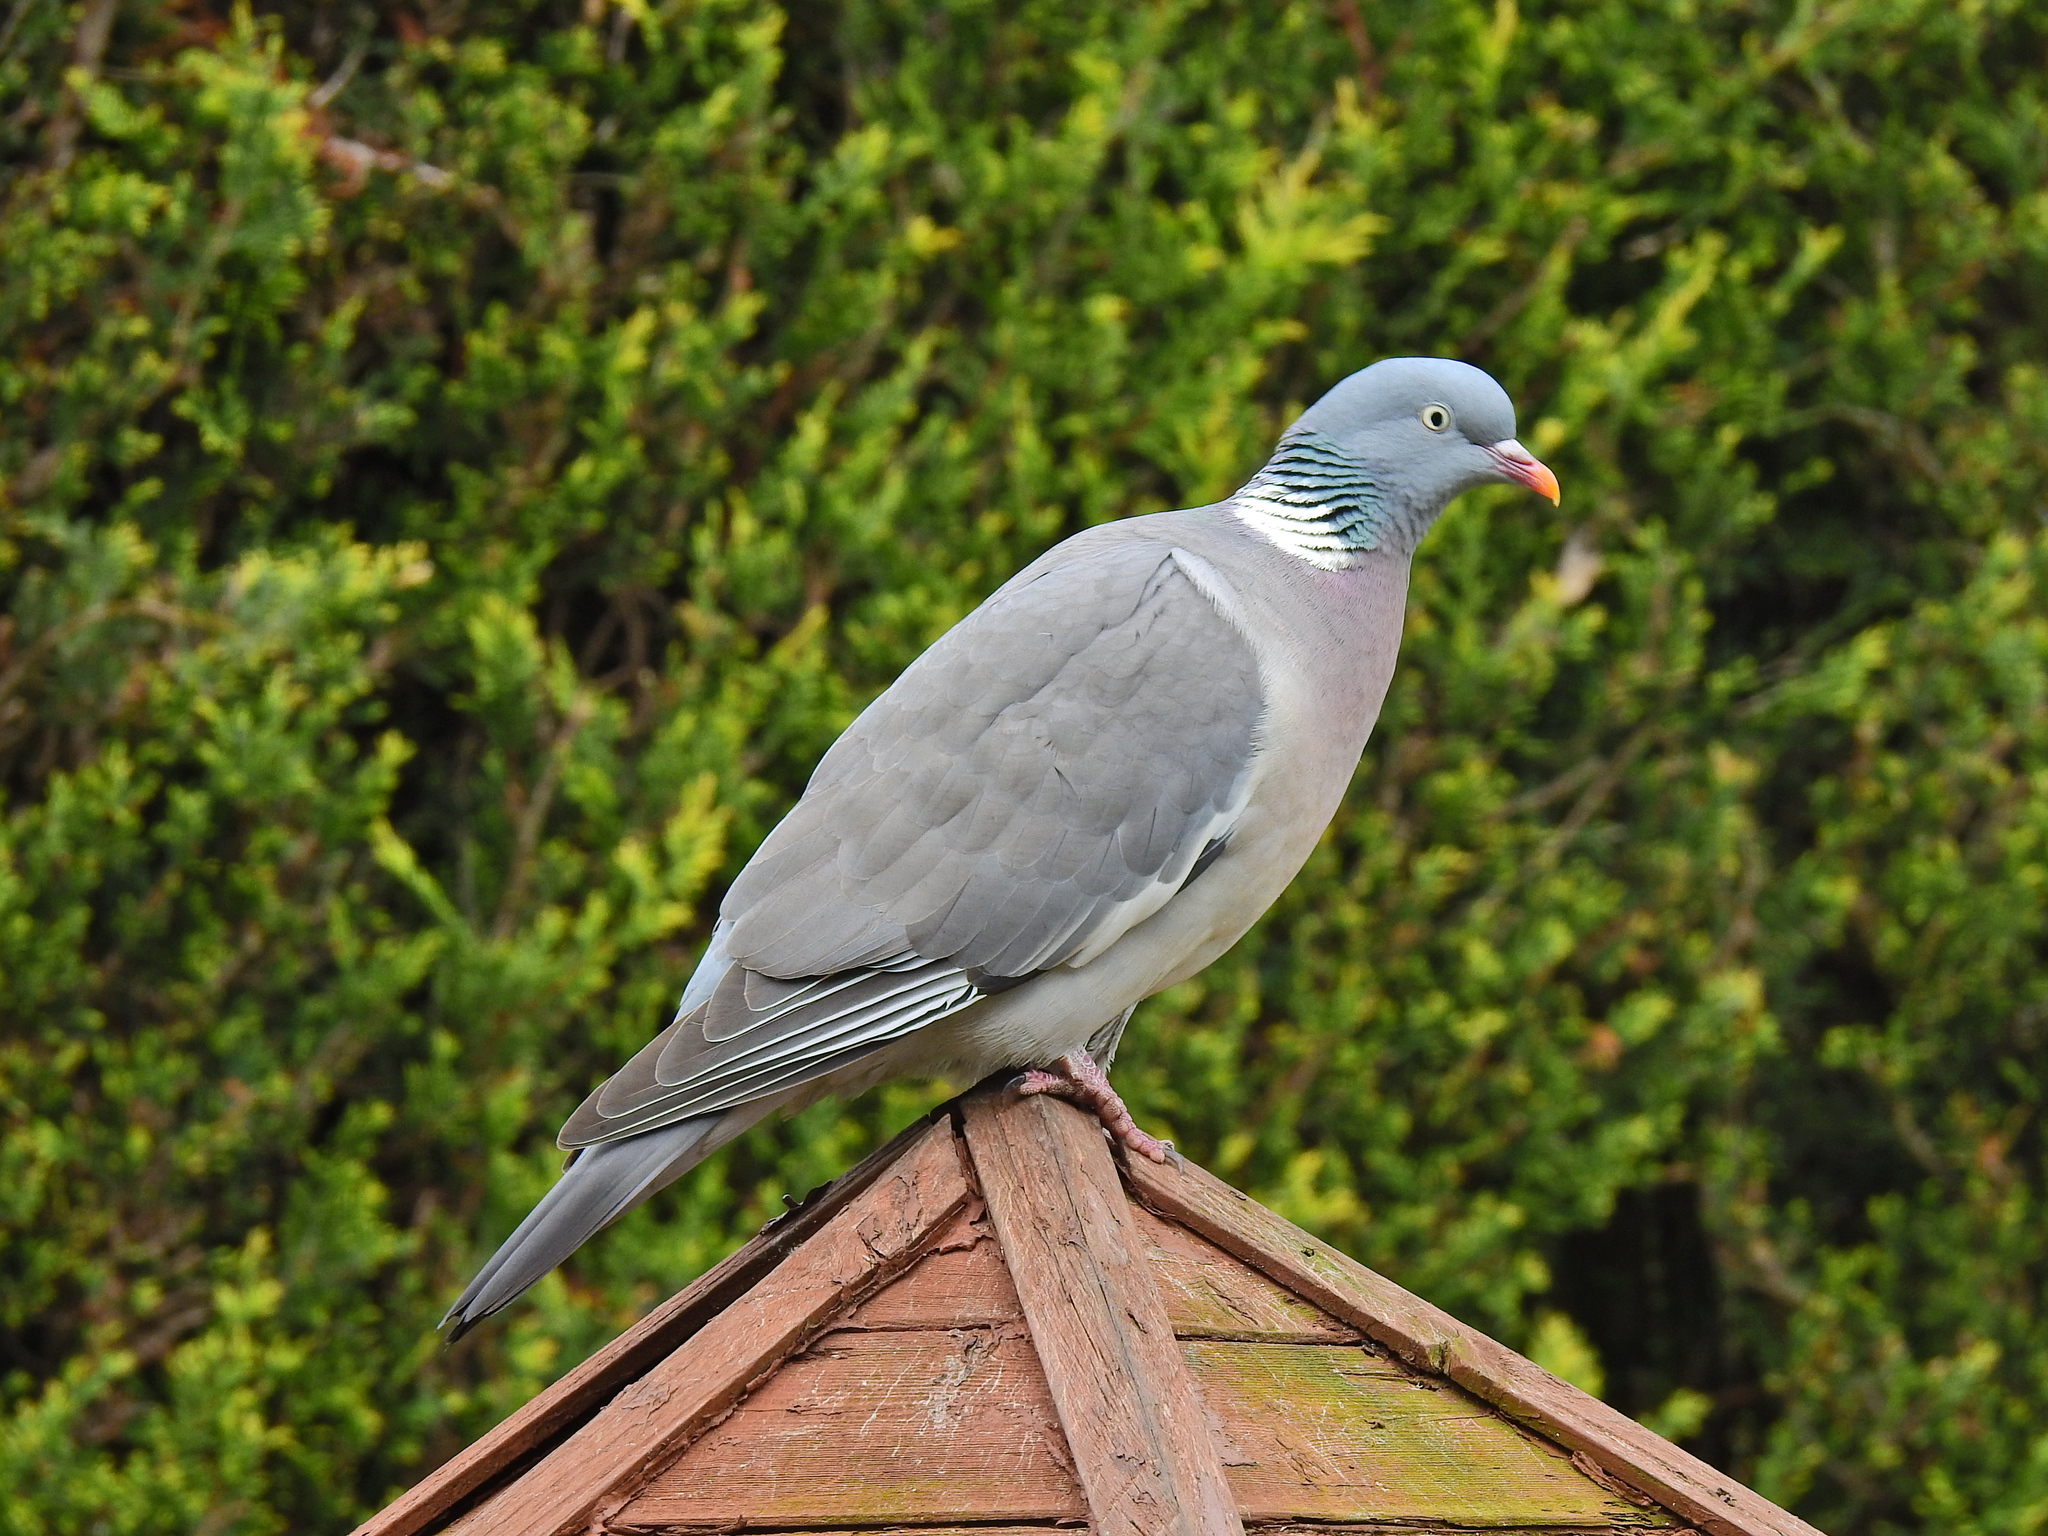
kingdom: Animalia
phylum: Chordata
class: Aves
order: Columbiformes
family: Columbidae
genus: Columba
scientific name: Columba palumbus
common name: Common wood pigeon
